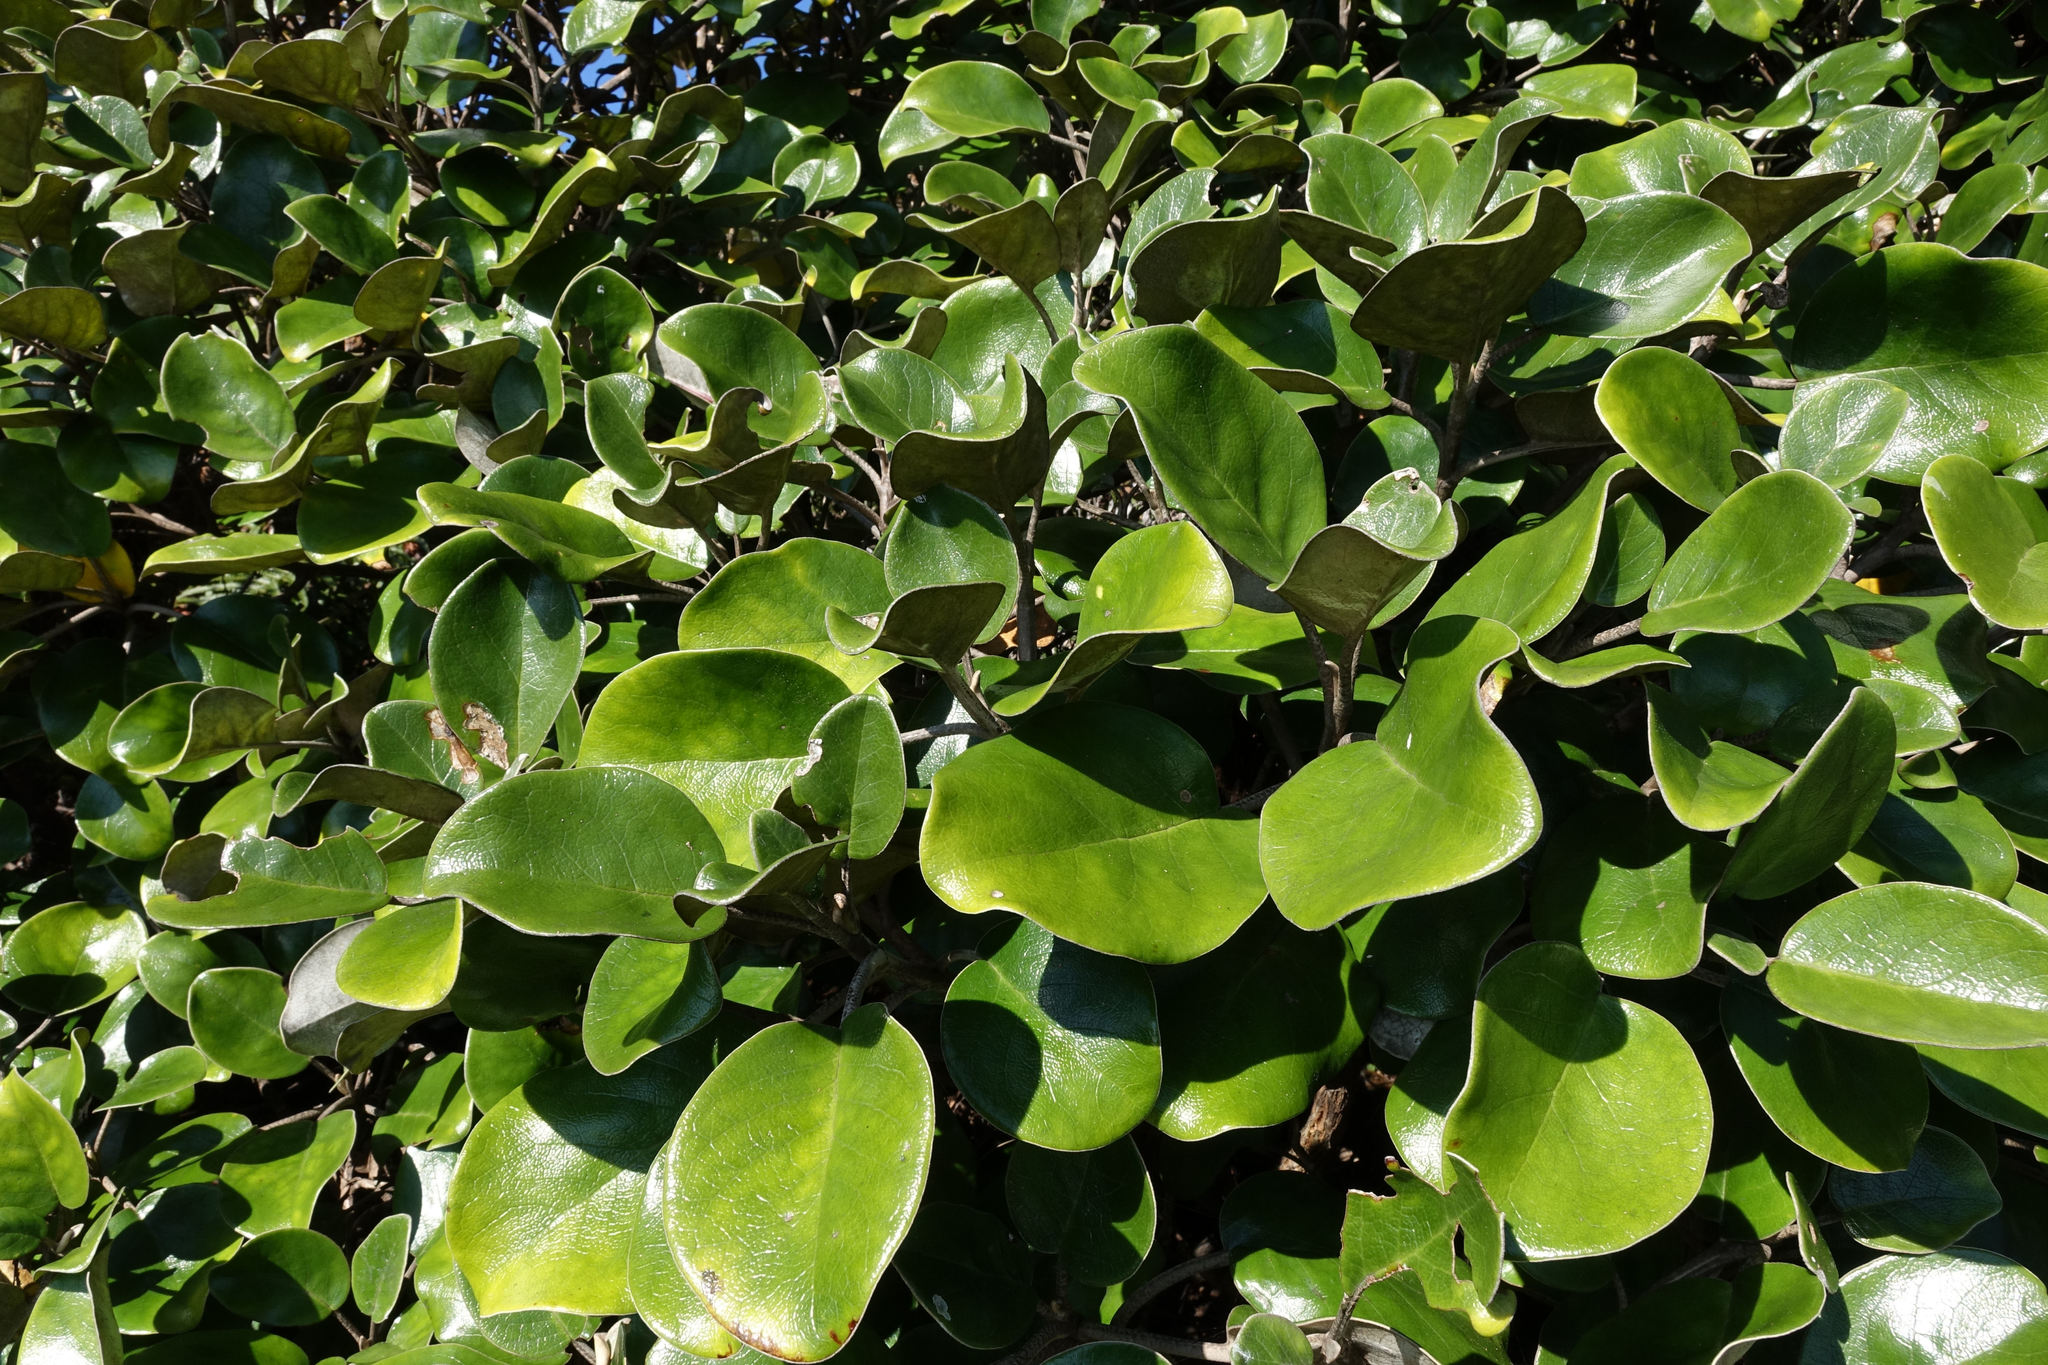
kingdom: Plantae
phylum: Tracheophyta
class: Magnoliopsida
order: Asterales
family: Asteraceae
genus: Brachyglottis
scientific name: Brachyglottis rotundifolia
